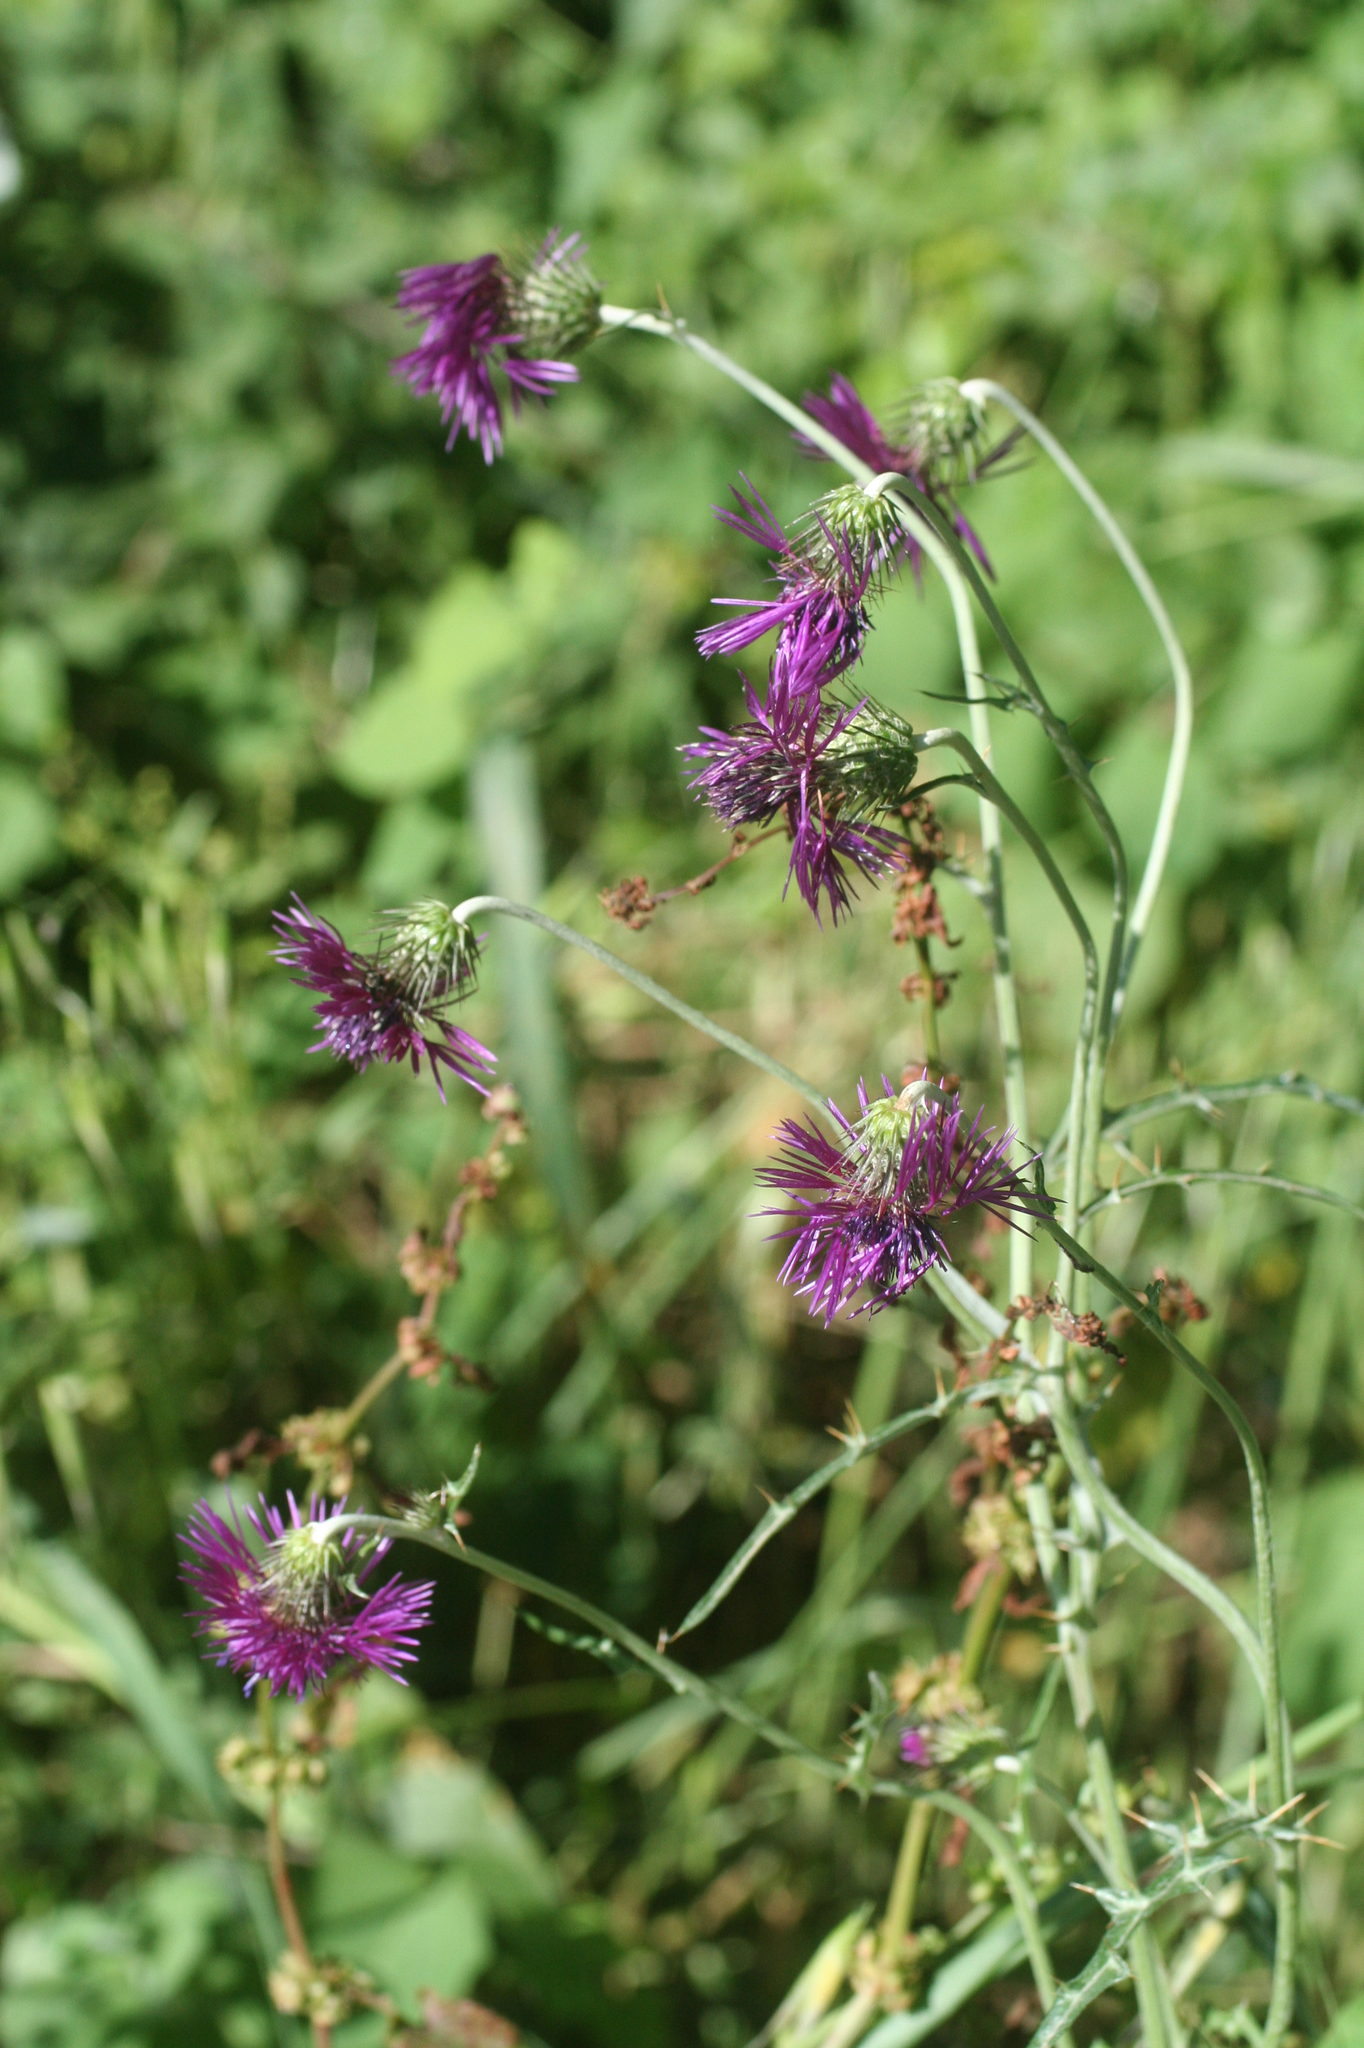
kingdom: Plantae
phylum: Tracheophyta
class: Magnoliopsida
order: Asterales
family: Asteraceae
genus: Galactites
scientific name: Galactites tomentosa
